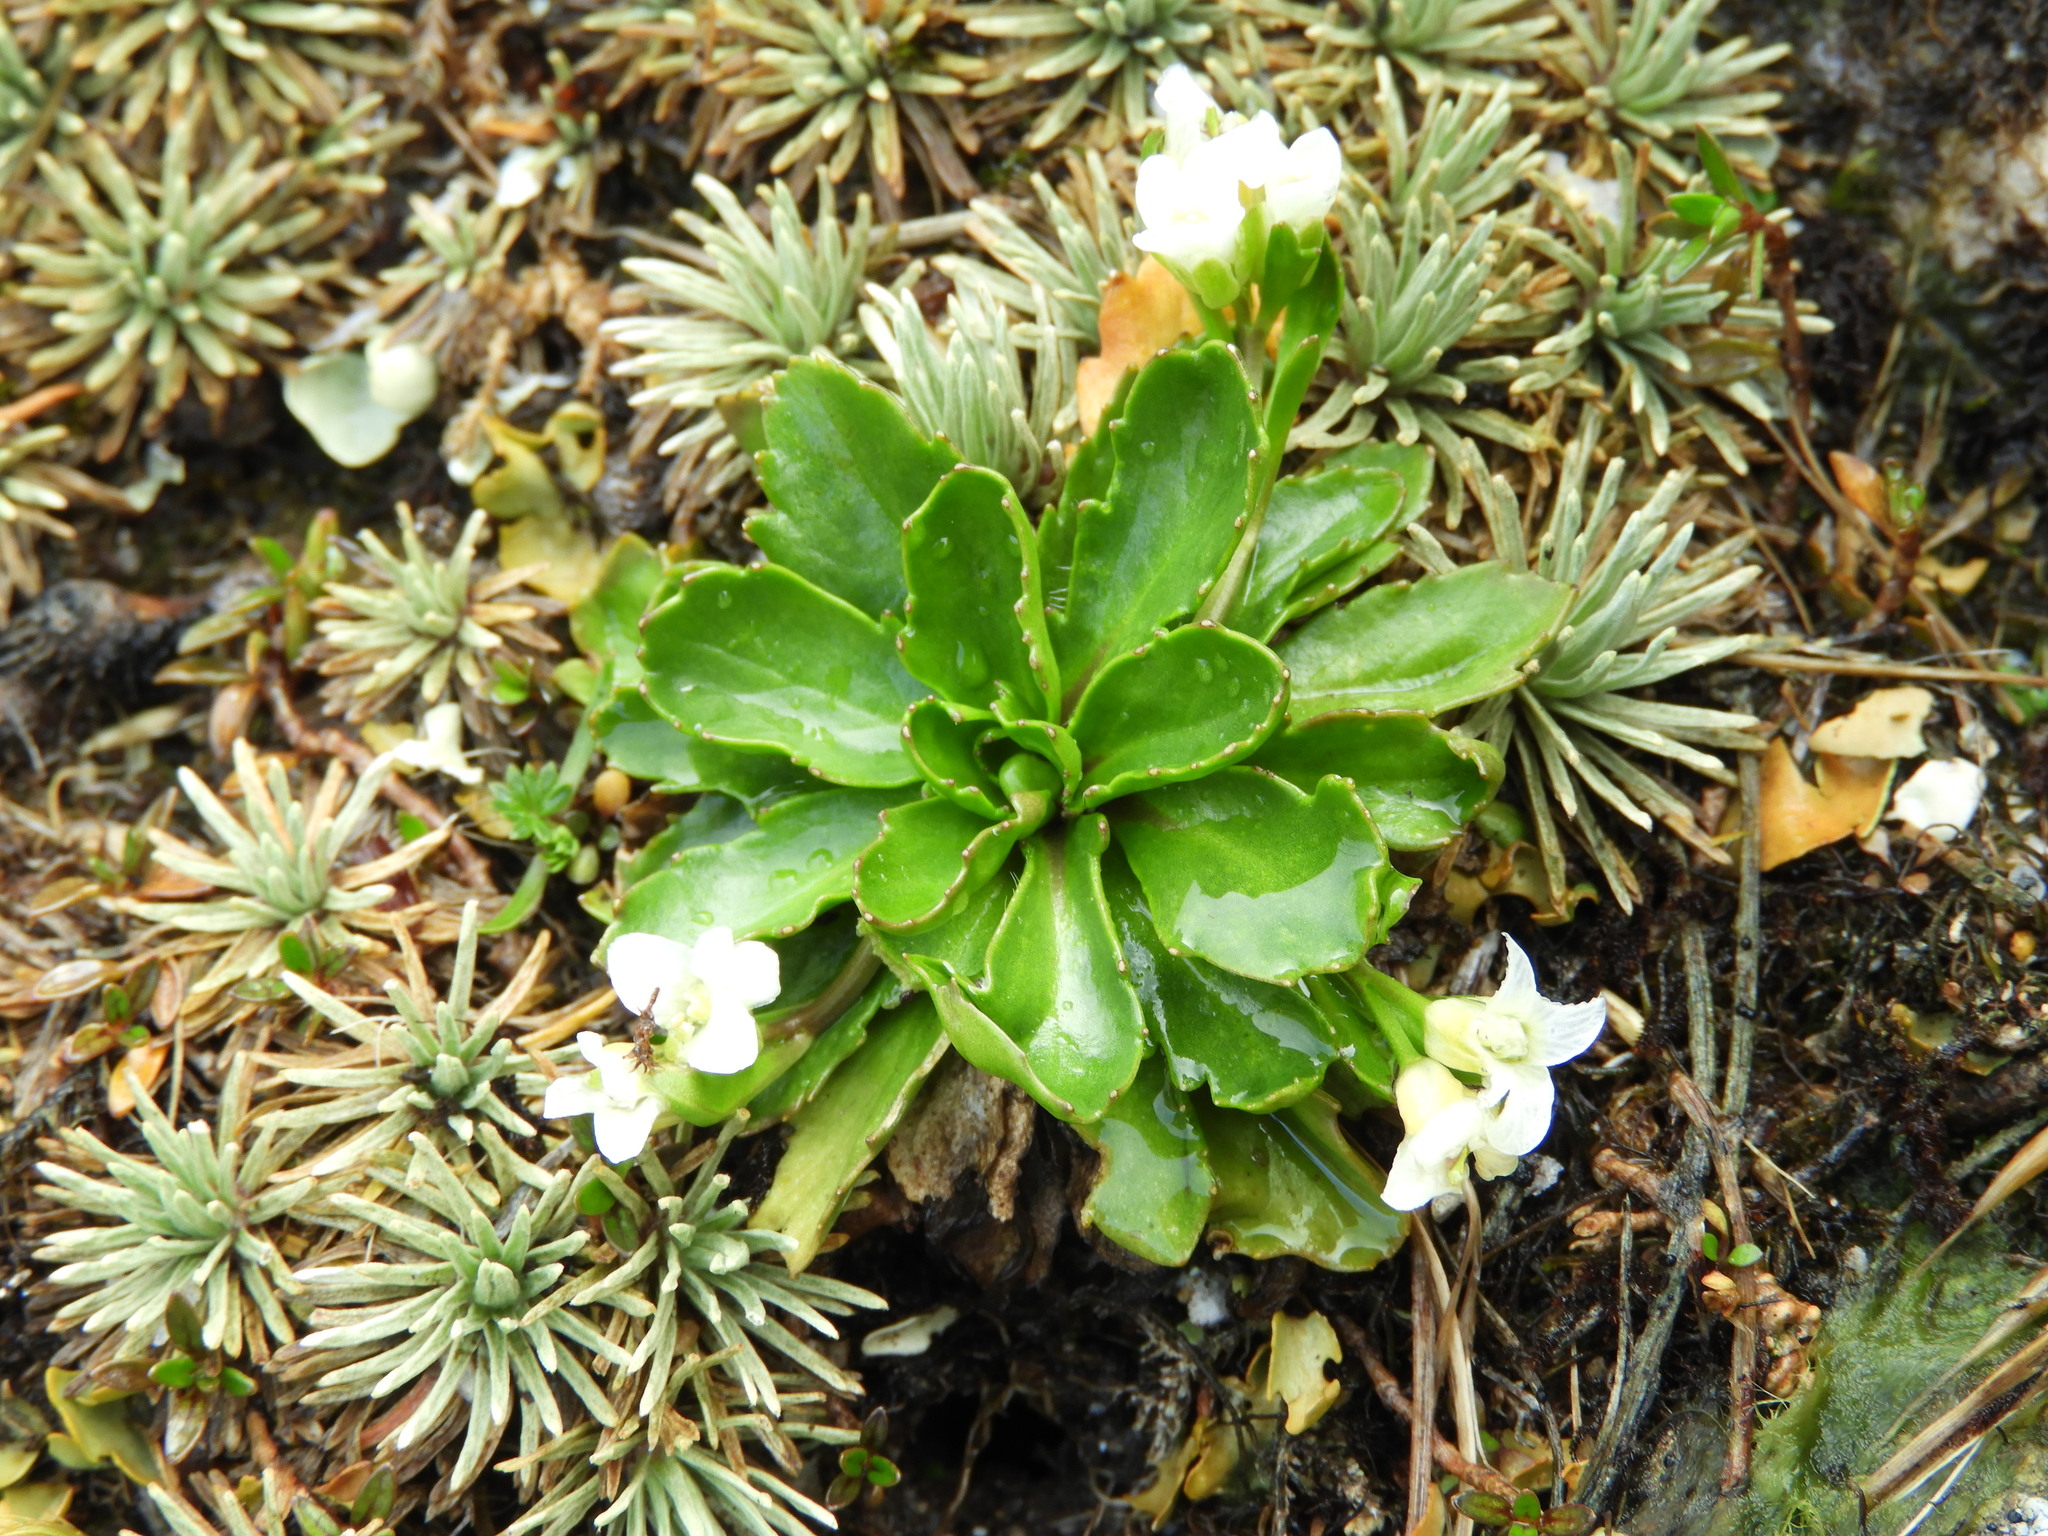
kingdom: Plantae
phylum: Tracheophyta
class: Magnoliopsida
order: Brassicales
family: Brassicaceae
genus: Pachycladon
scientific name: Pachycladon crenatus
